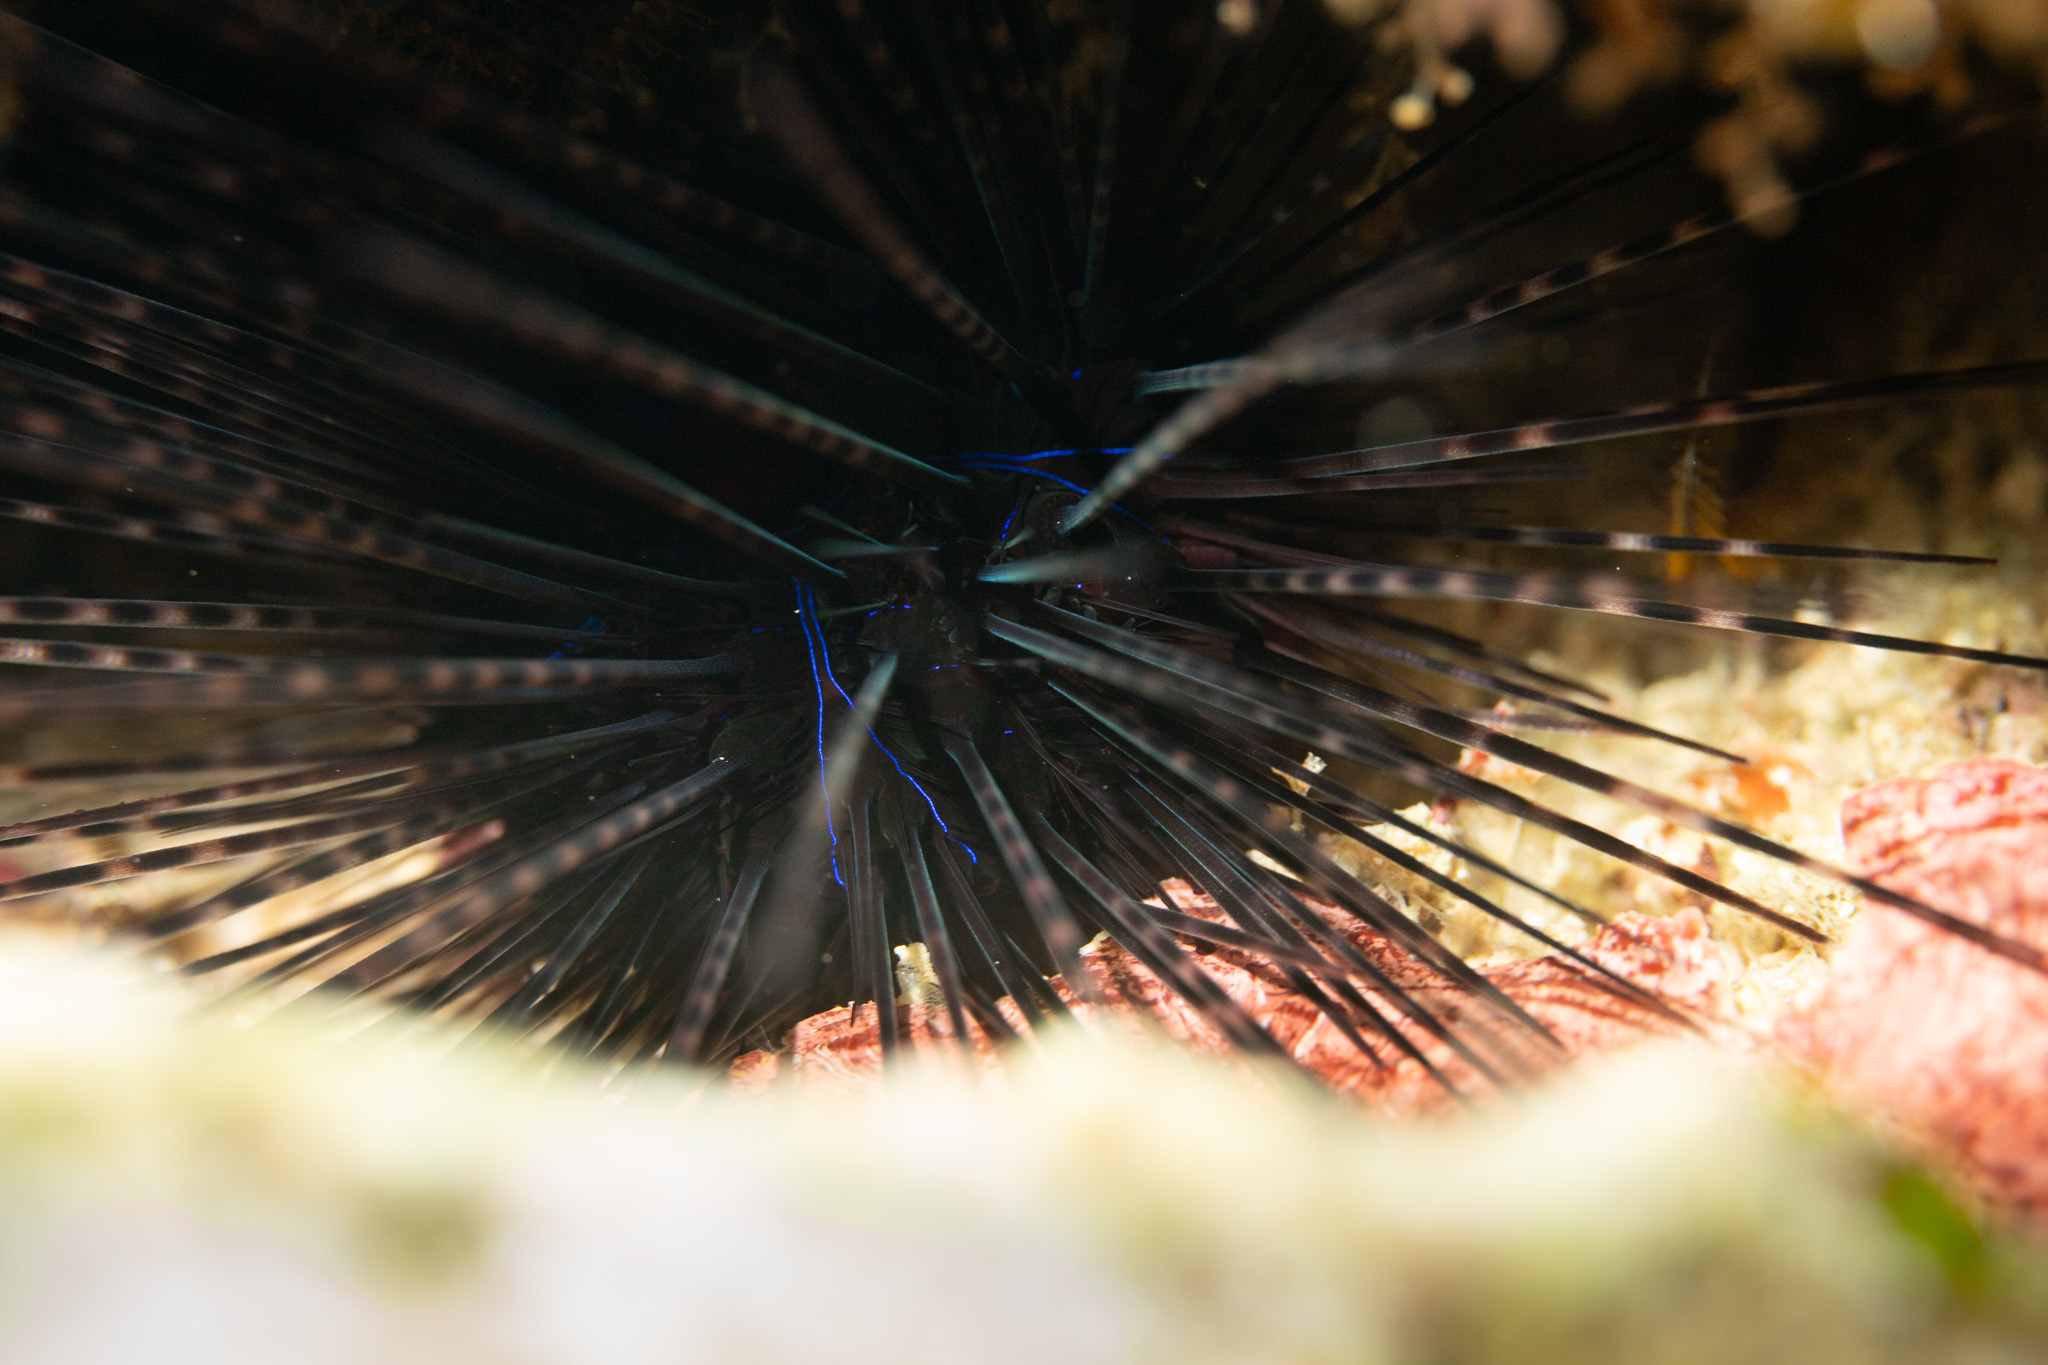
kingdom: Animalia
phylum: Echinodermata
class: Echinoidea
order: Diadematoida
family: Diadematidae
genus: Diadema
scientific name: Diadema antillarum
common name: Spiny urchin
